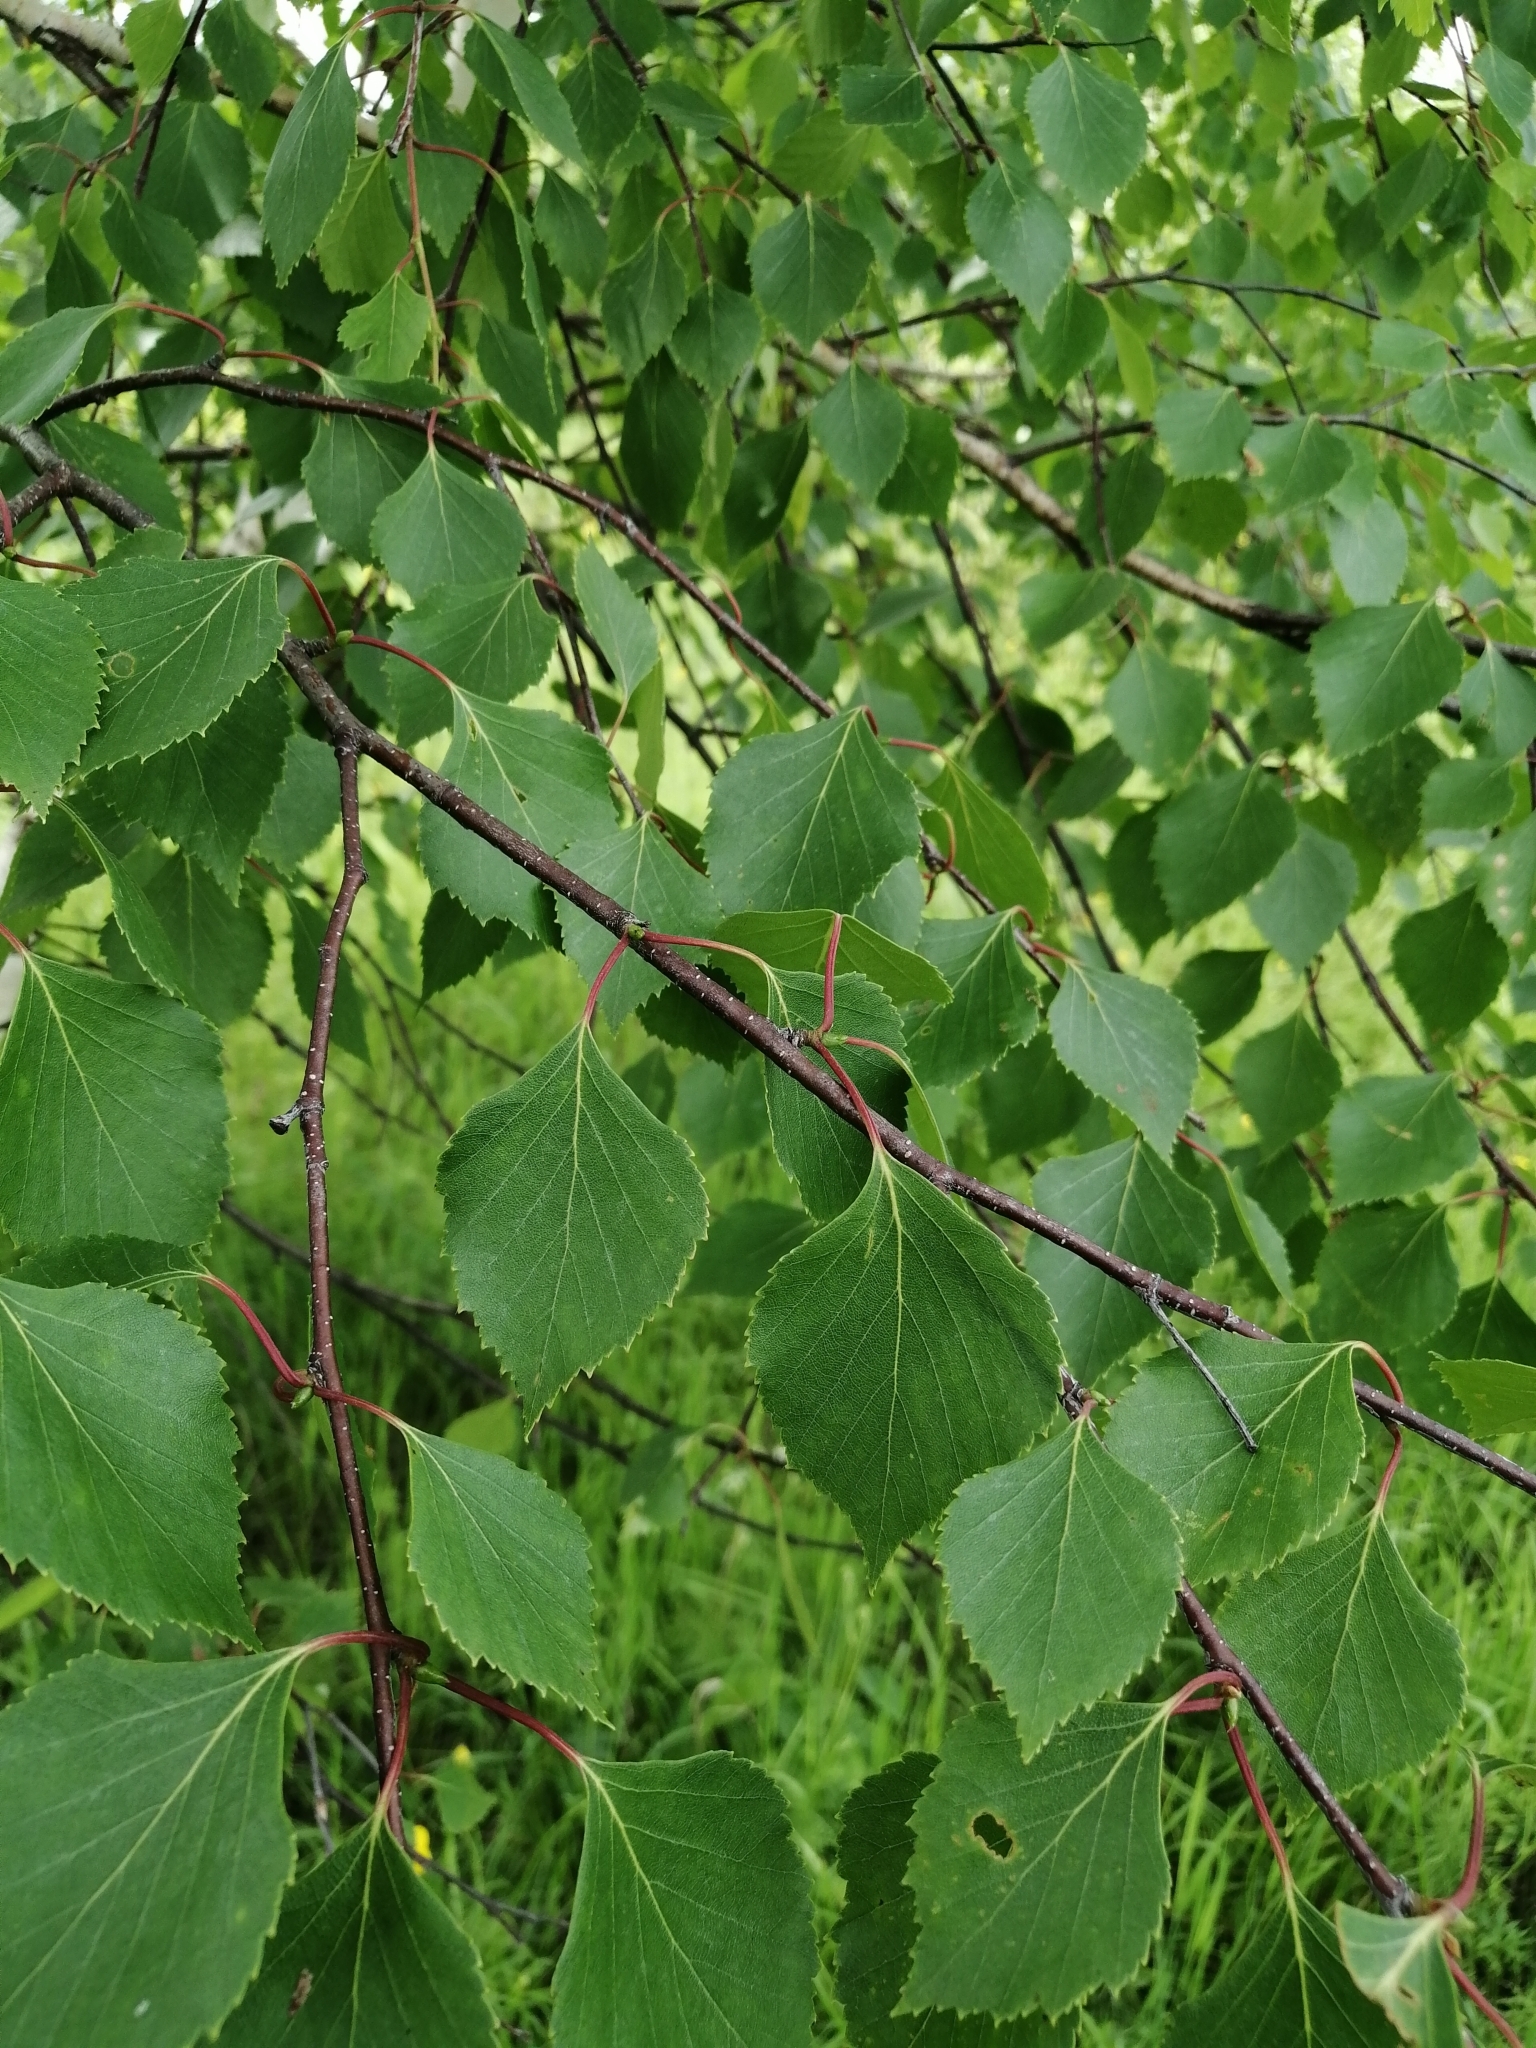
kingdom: Plantae
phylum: Tracheophyta
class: Magnoliopsida
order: Fagales
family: Betulaceae
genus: Betula
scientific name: Betula pendula
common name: Silver birch
